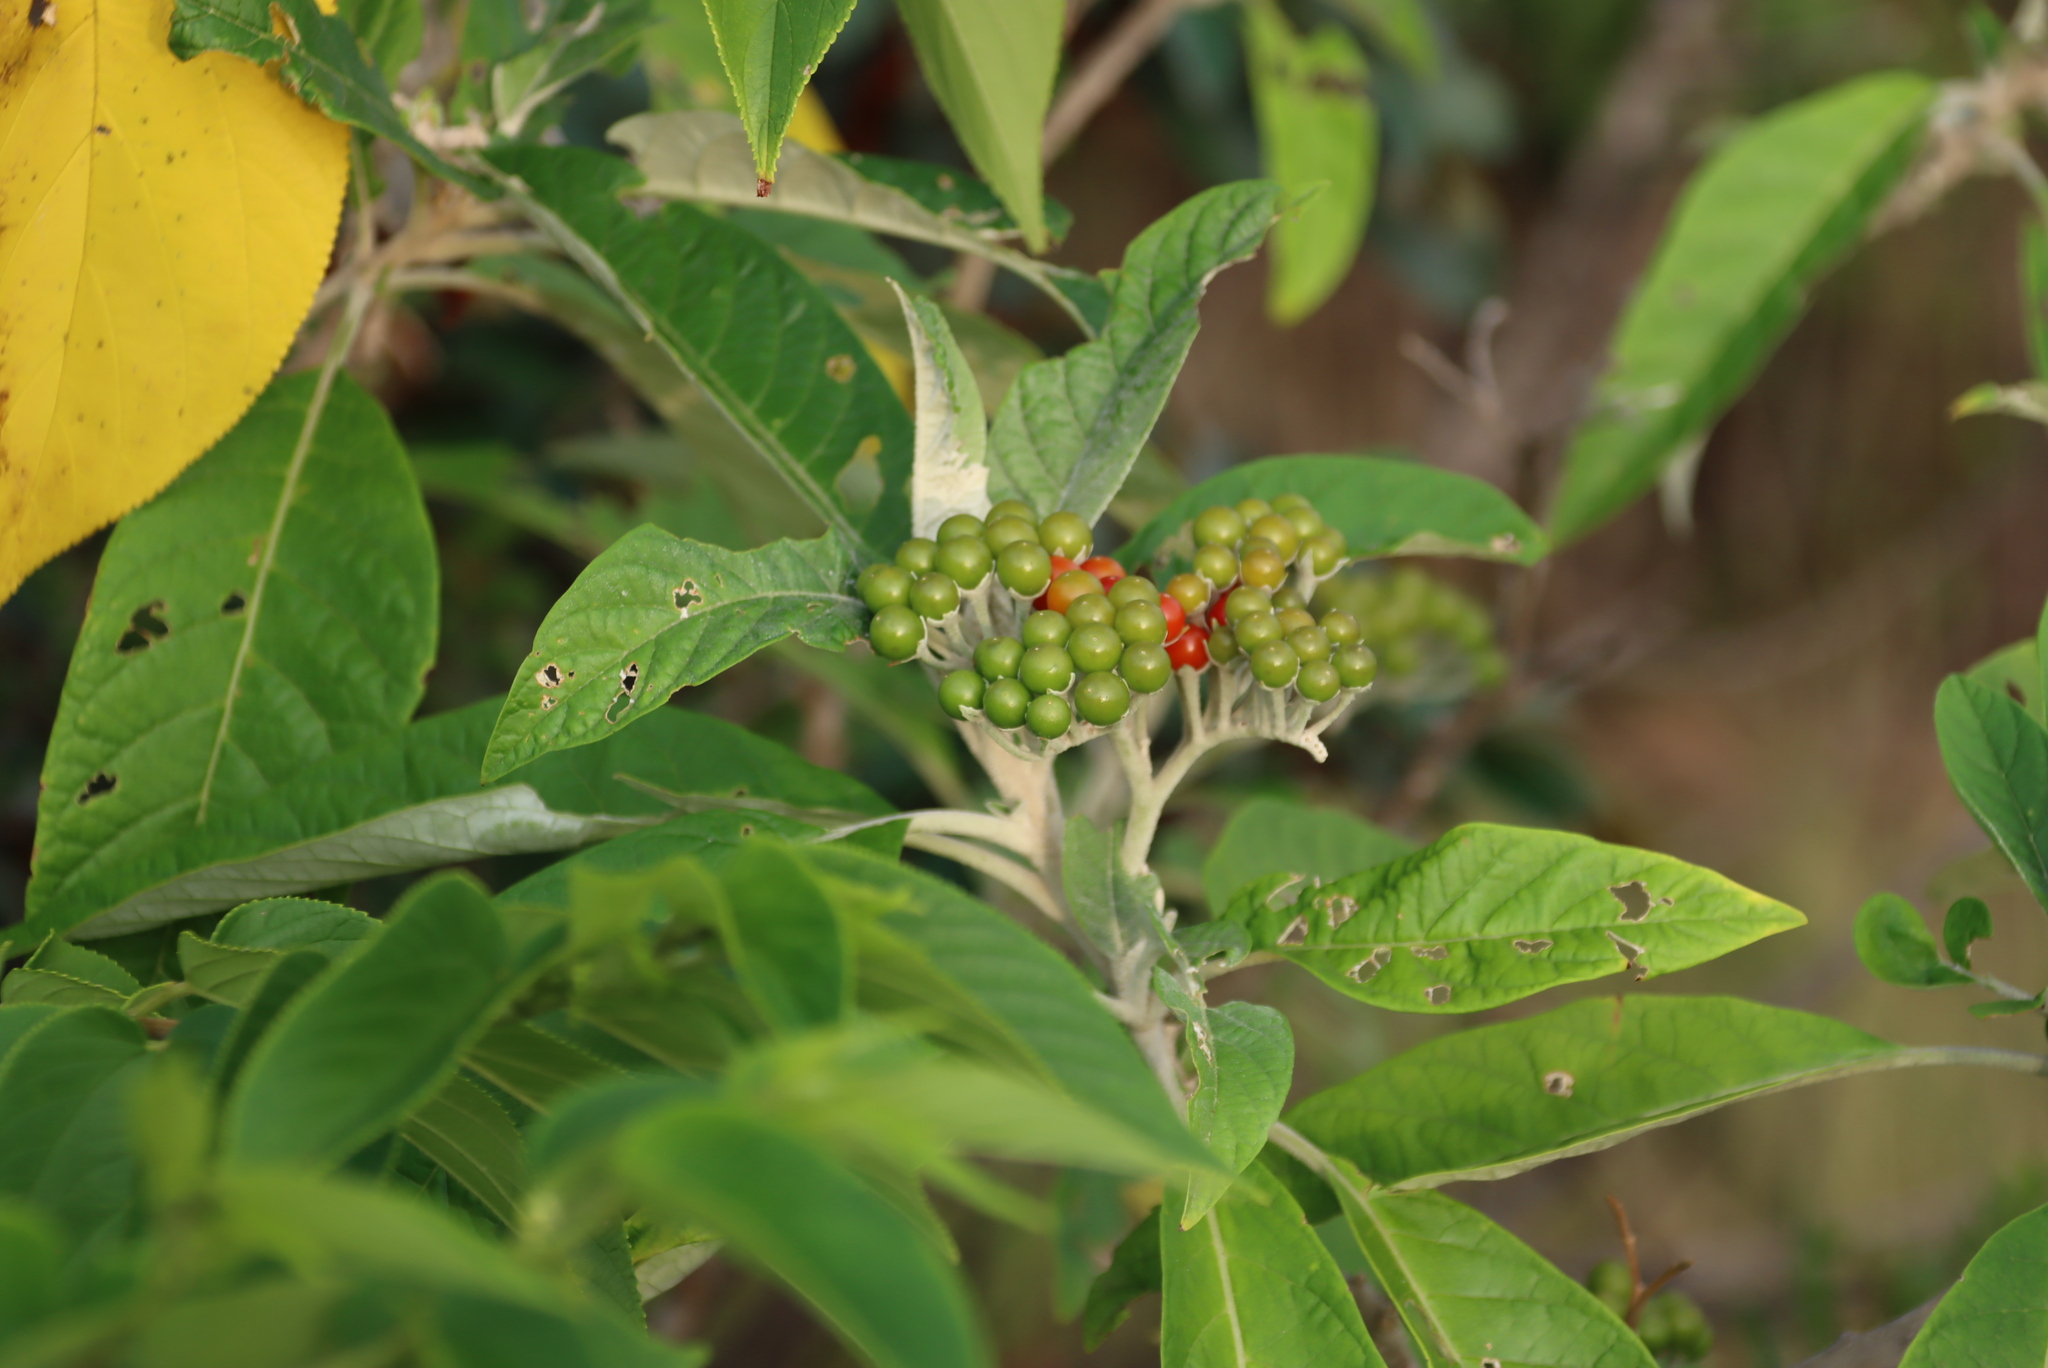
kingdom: Plantae
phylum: Tracheophyta
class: Magnoliopsida
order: Solanales
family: Solanaceae
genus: Solanum
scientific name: Solanum giganteum
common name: Healing-leaf-tree
